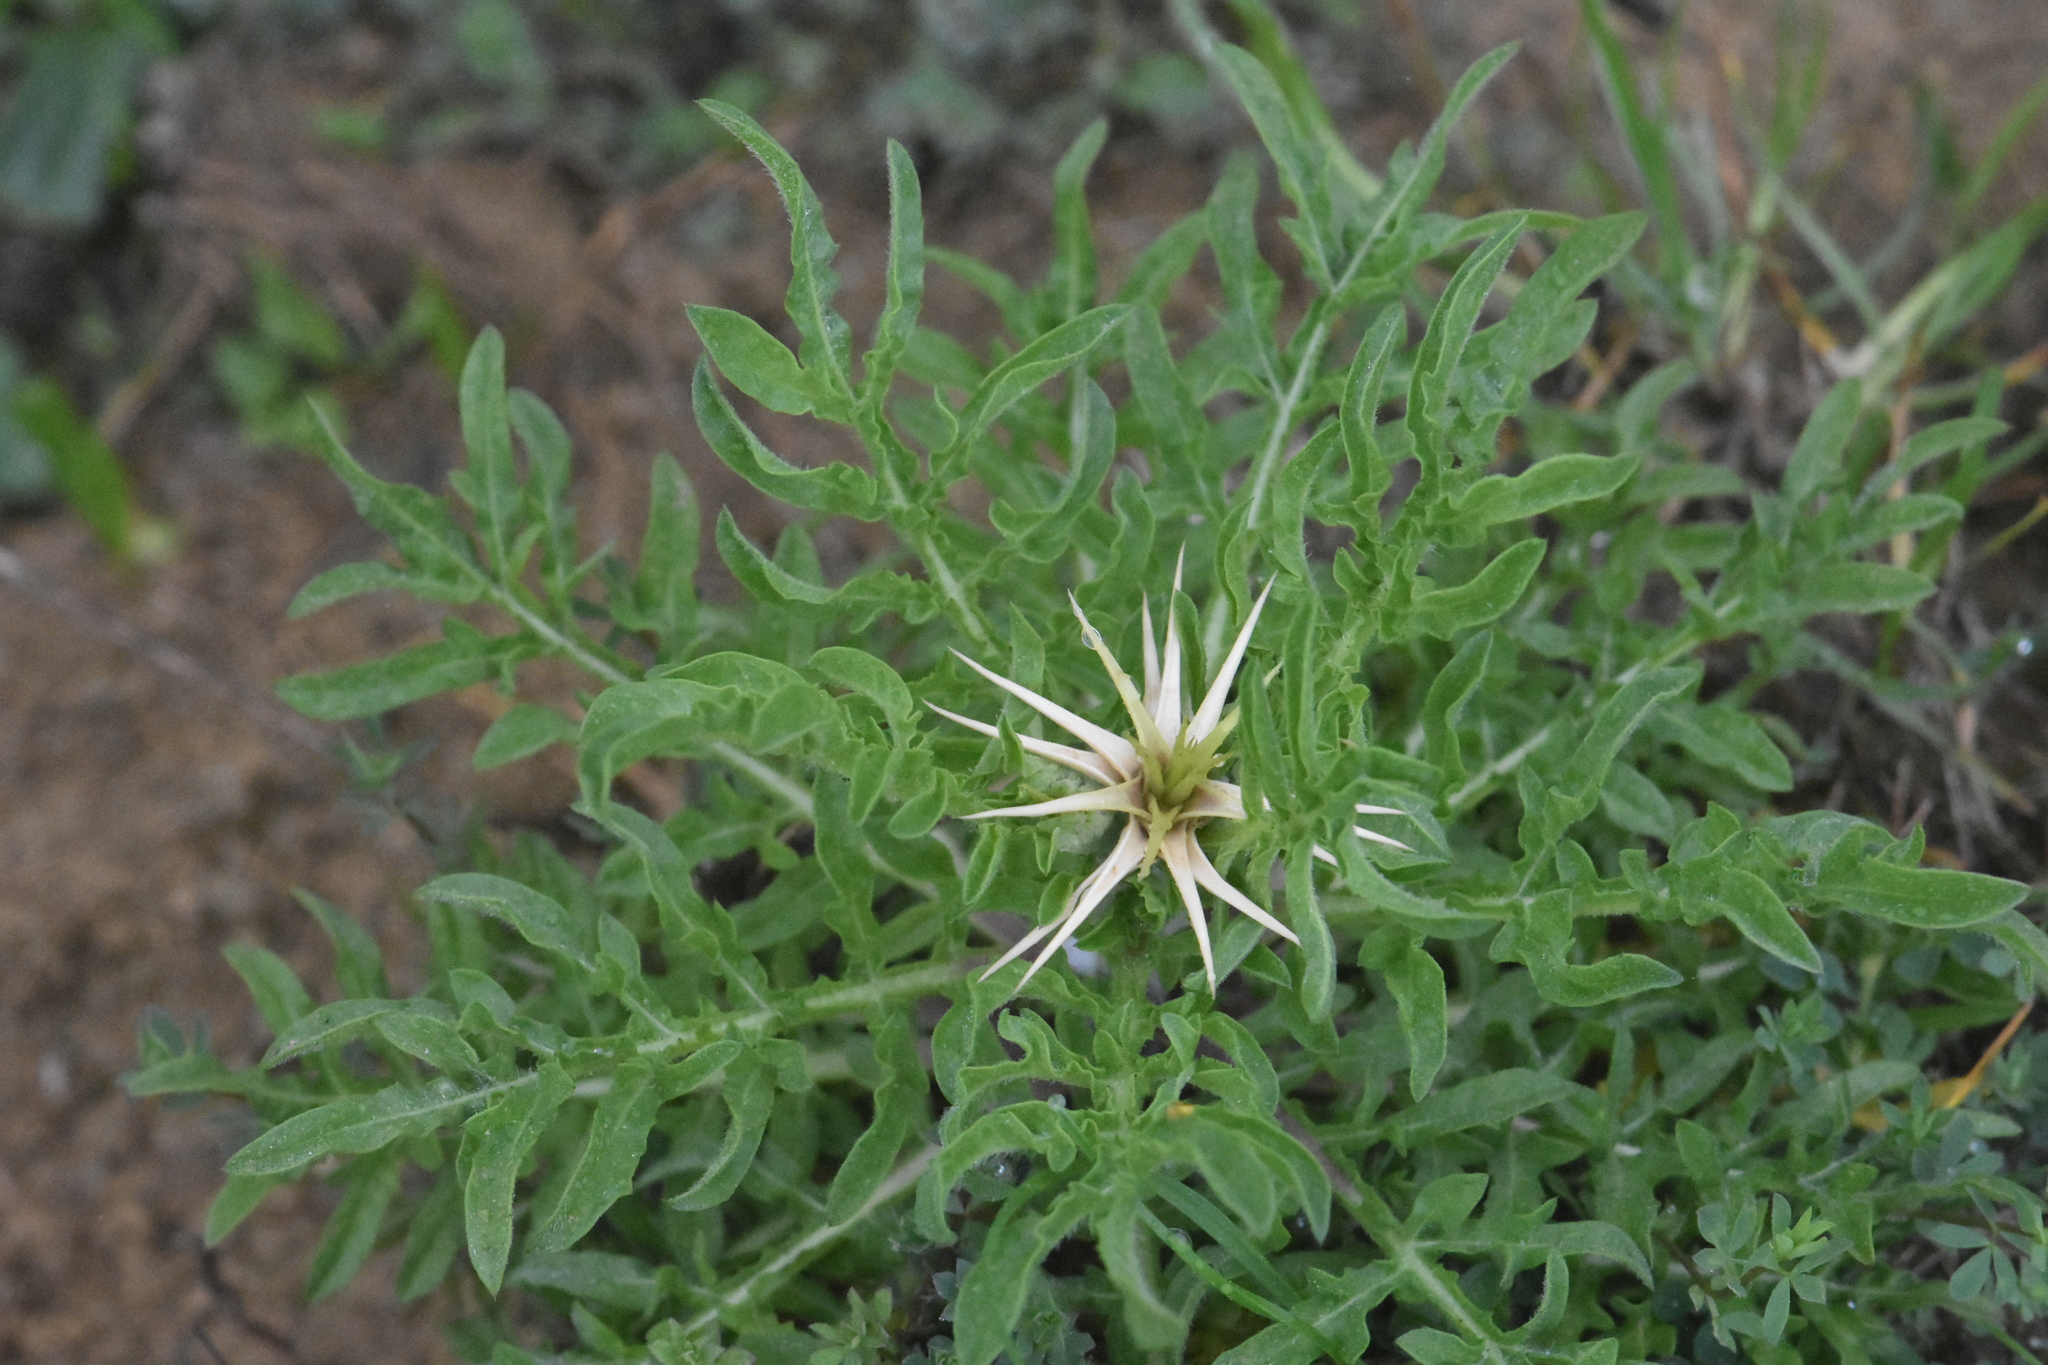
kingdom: Plantae
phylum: Tracheophyta
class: Magnoliopsida
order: Asterales
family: Asteraceae
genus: Centaurea
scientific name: Centaurea iberica
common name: Iberian knapweed
